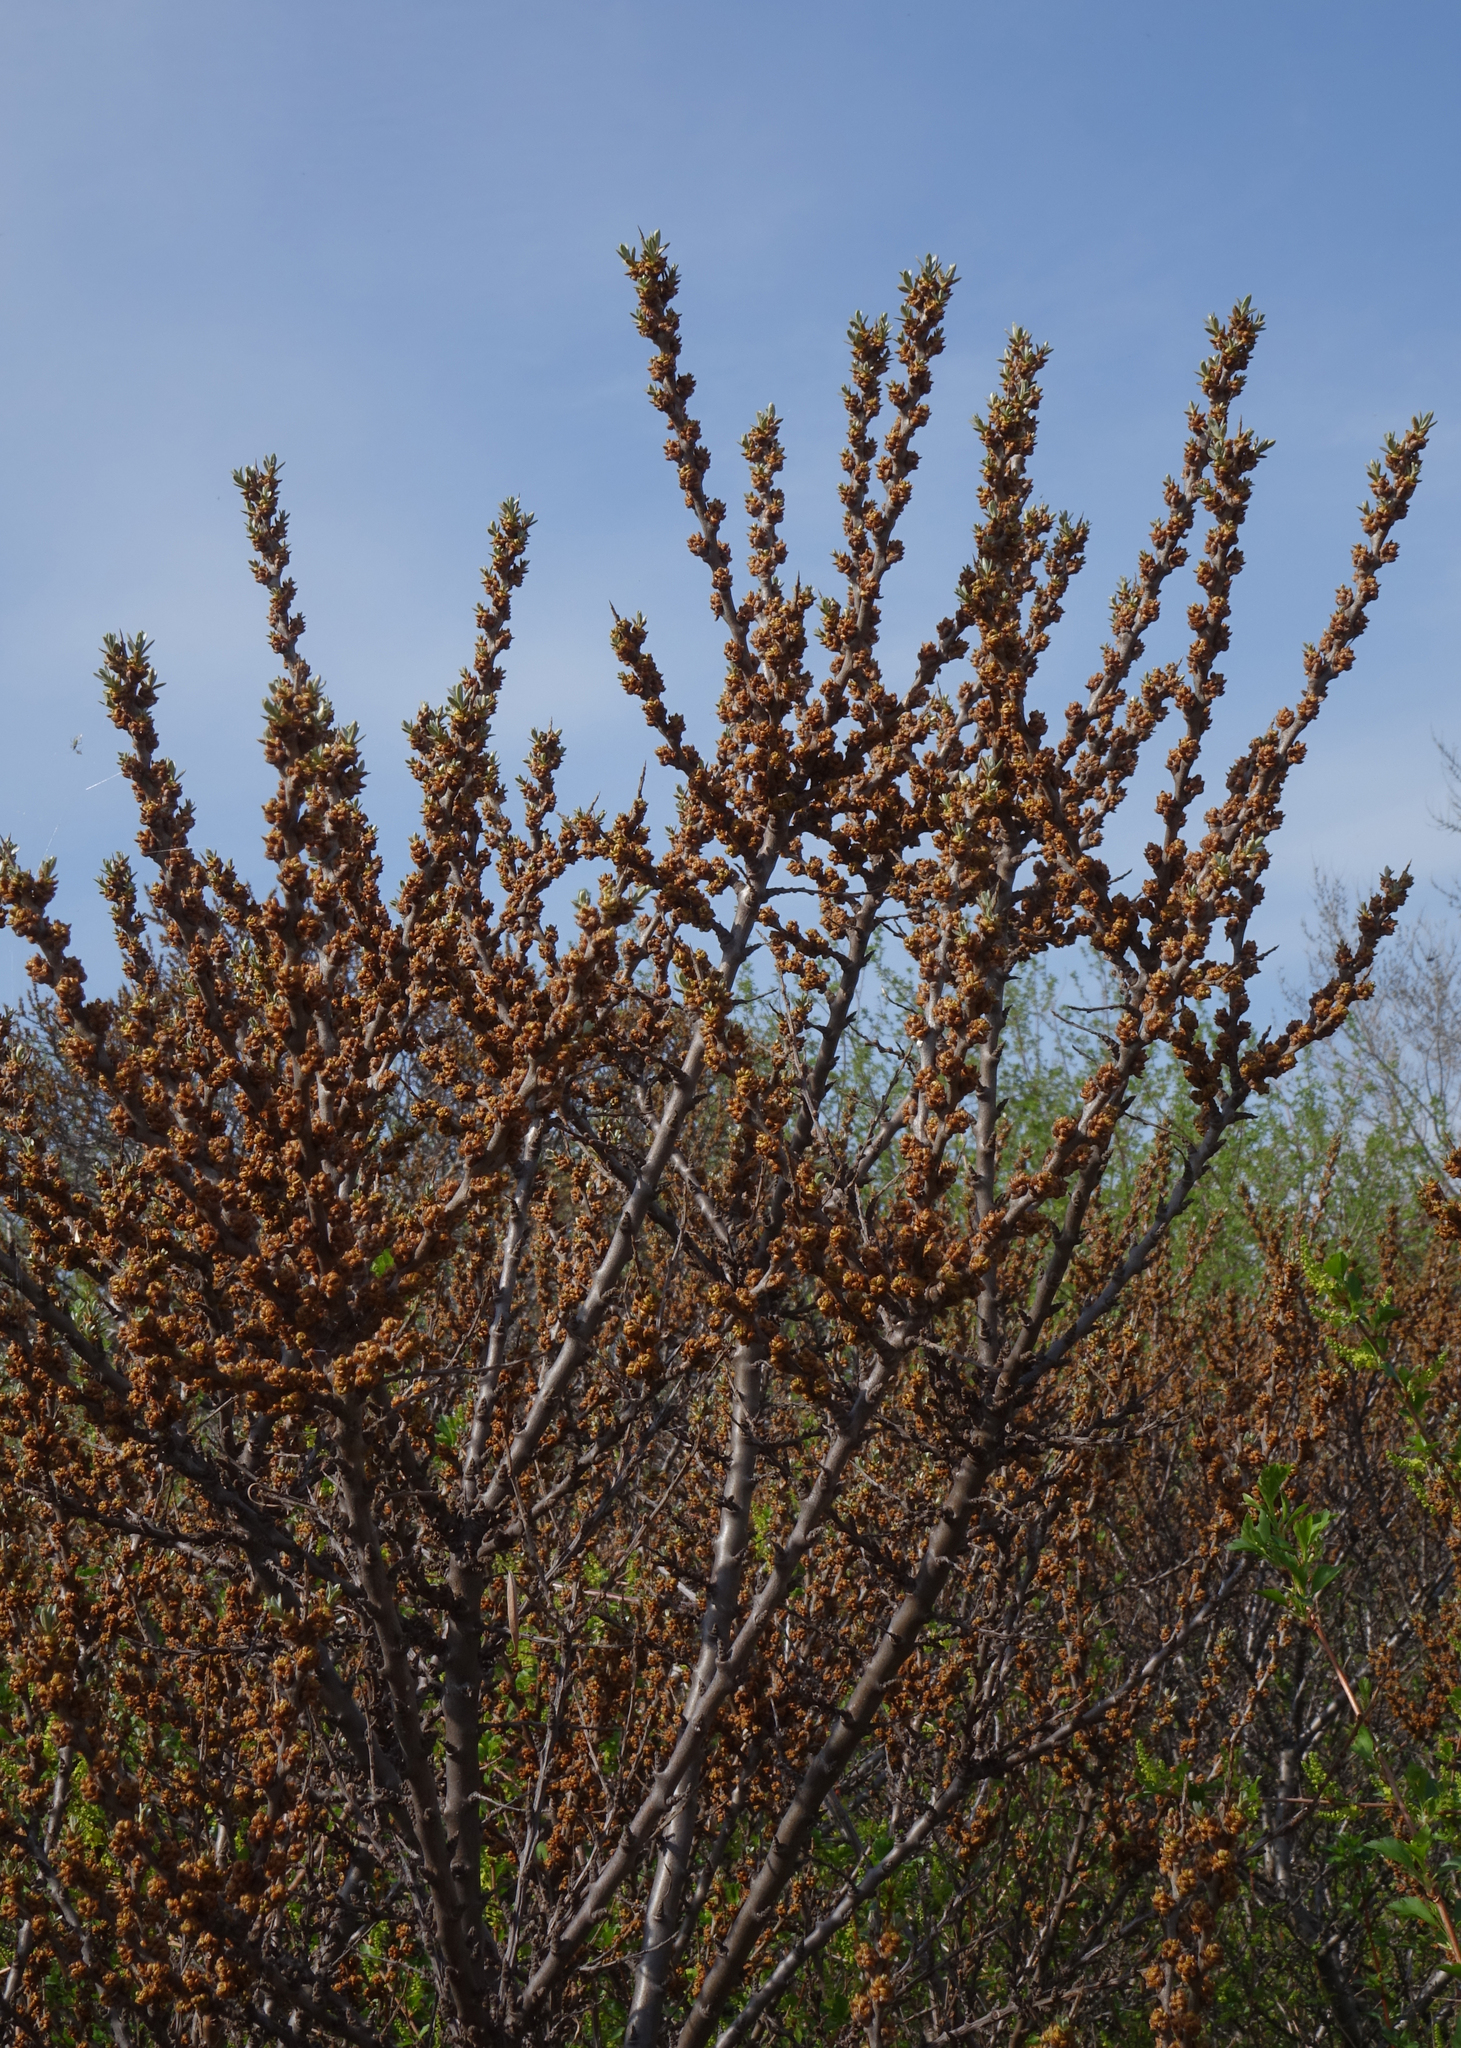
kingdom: Plantae
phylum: Tracheophyta
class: Magnoliopsida
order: Rosales
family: Elaeagnaceae
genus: Hippophae
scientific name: Hippophae rhamnoides
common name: Sea-buckthorn
